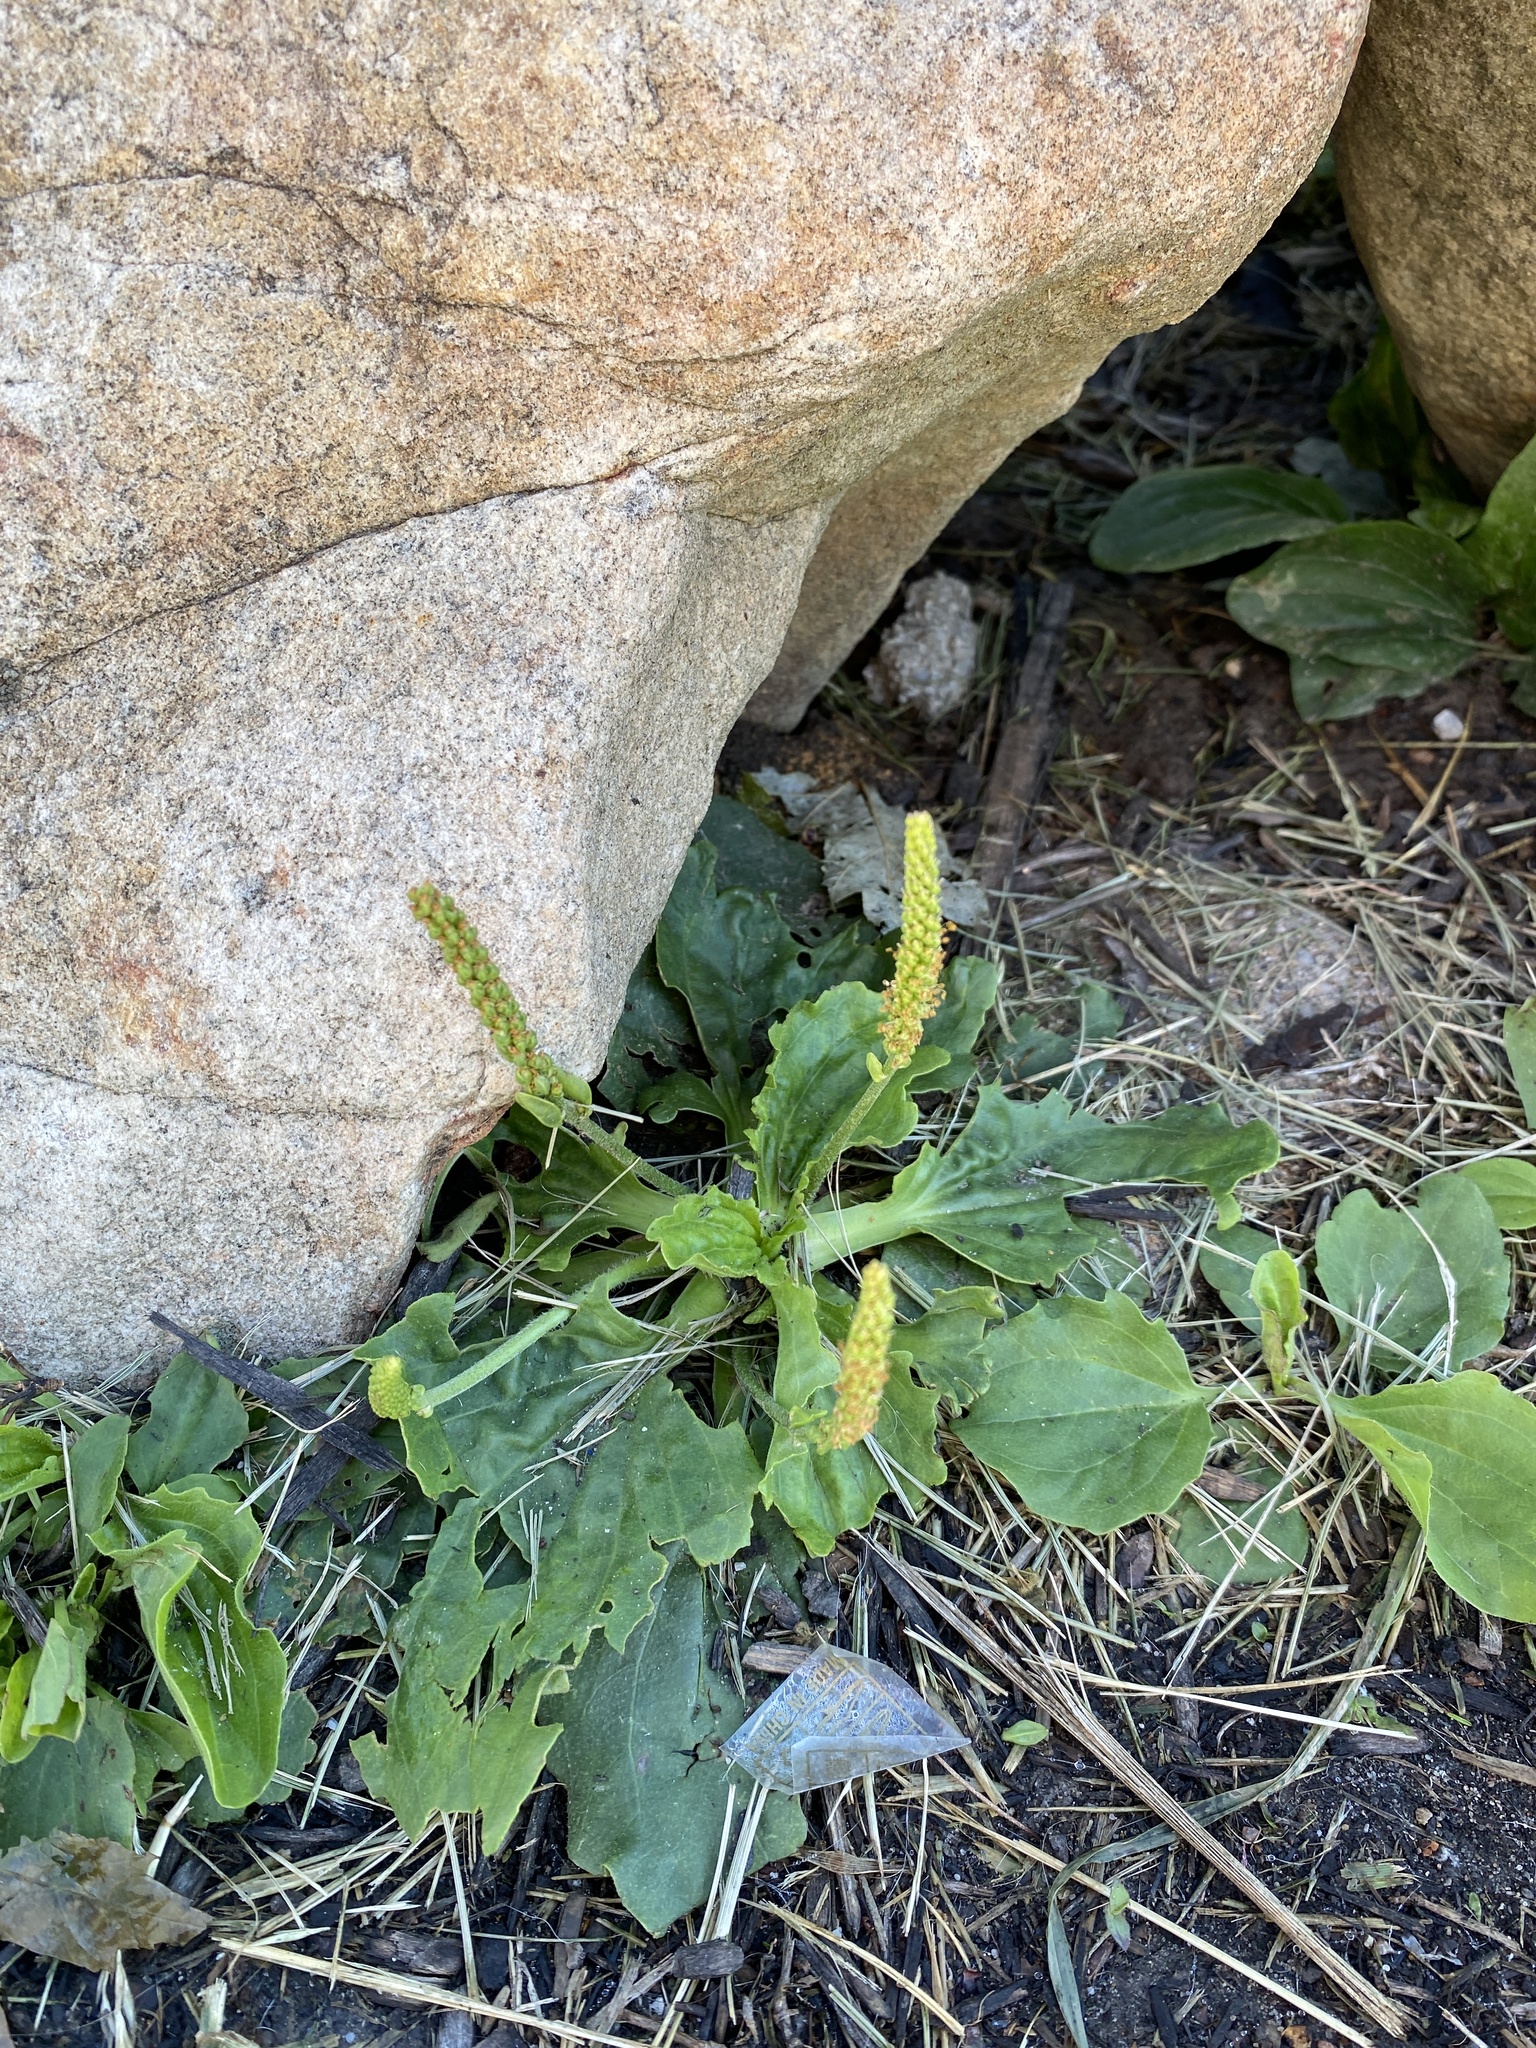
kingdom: Plantae
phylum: Tracheophyta
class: Magnoliopsida
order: Lamiales
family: Plantaginaceae
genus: Plantago
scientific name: Plantago major
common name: Common plantain
